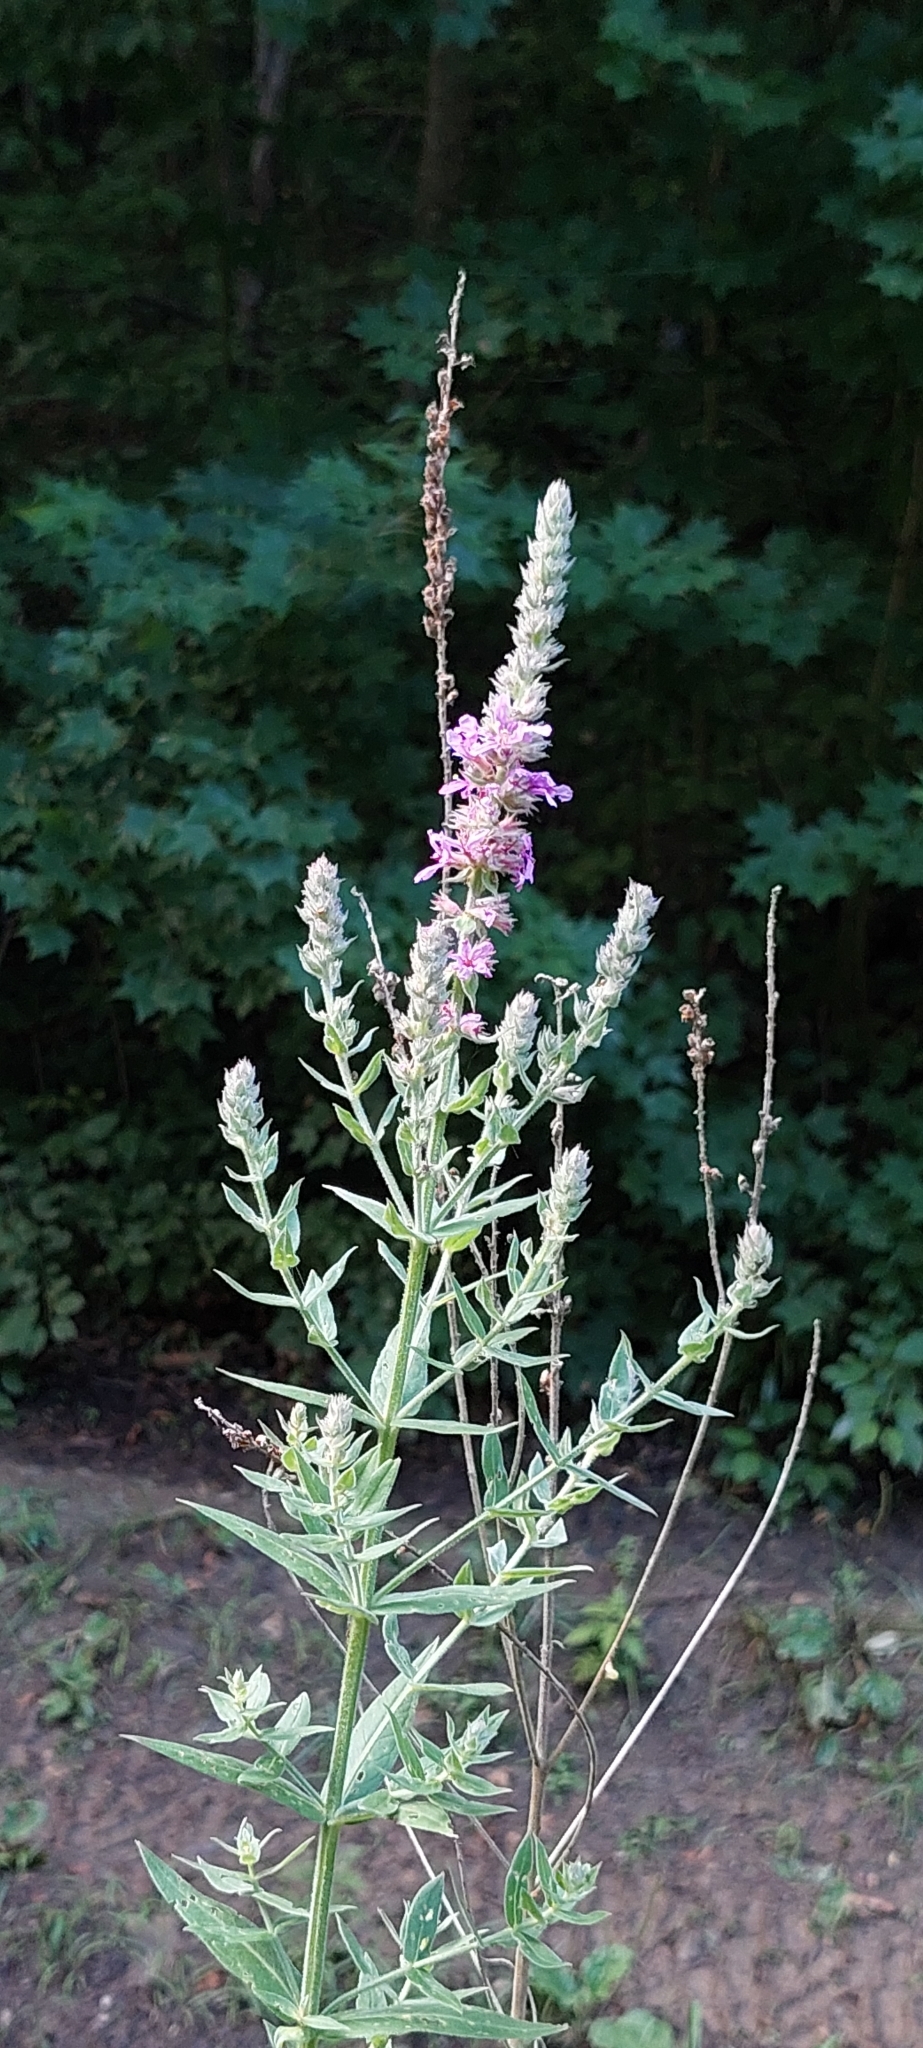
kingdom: Plantae
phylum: Tracheophyta
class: Magnoliopsida
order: Myrtales
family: Lythraceae
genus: Lythrum
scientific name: Lythrum salicaria
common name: Purple loosestrife
